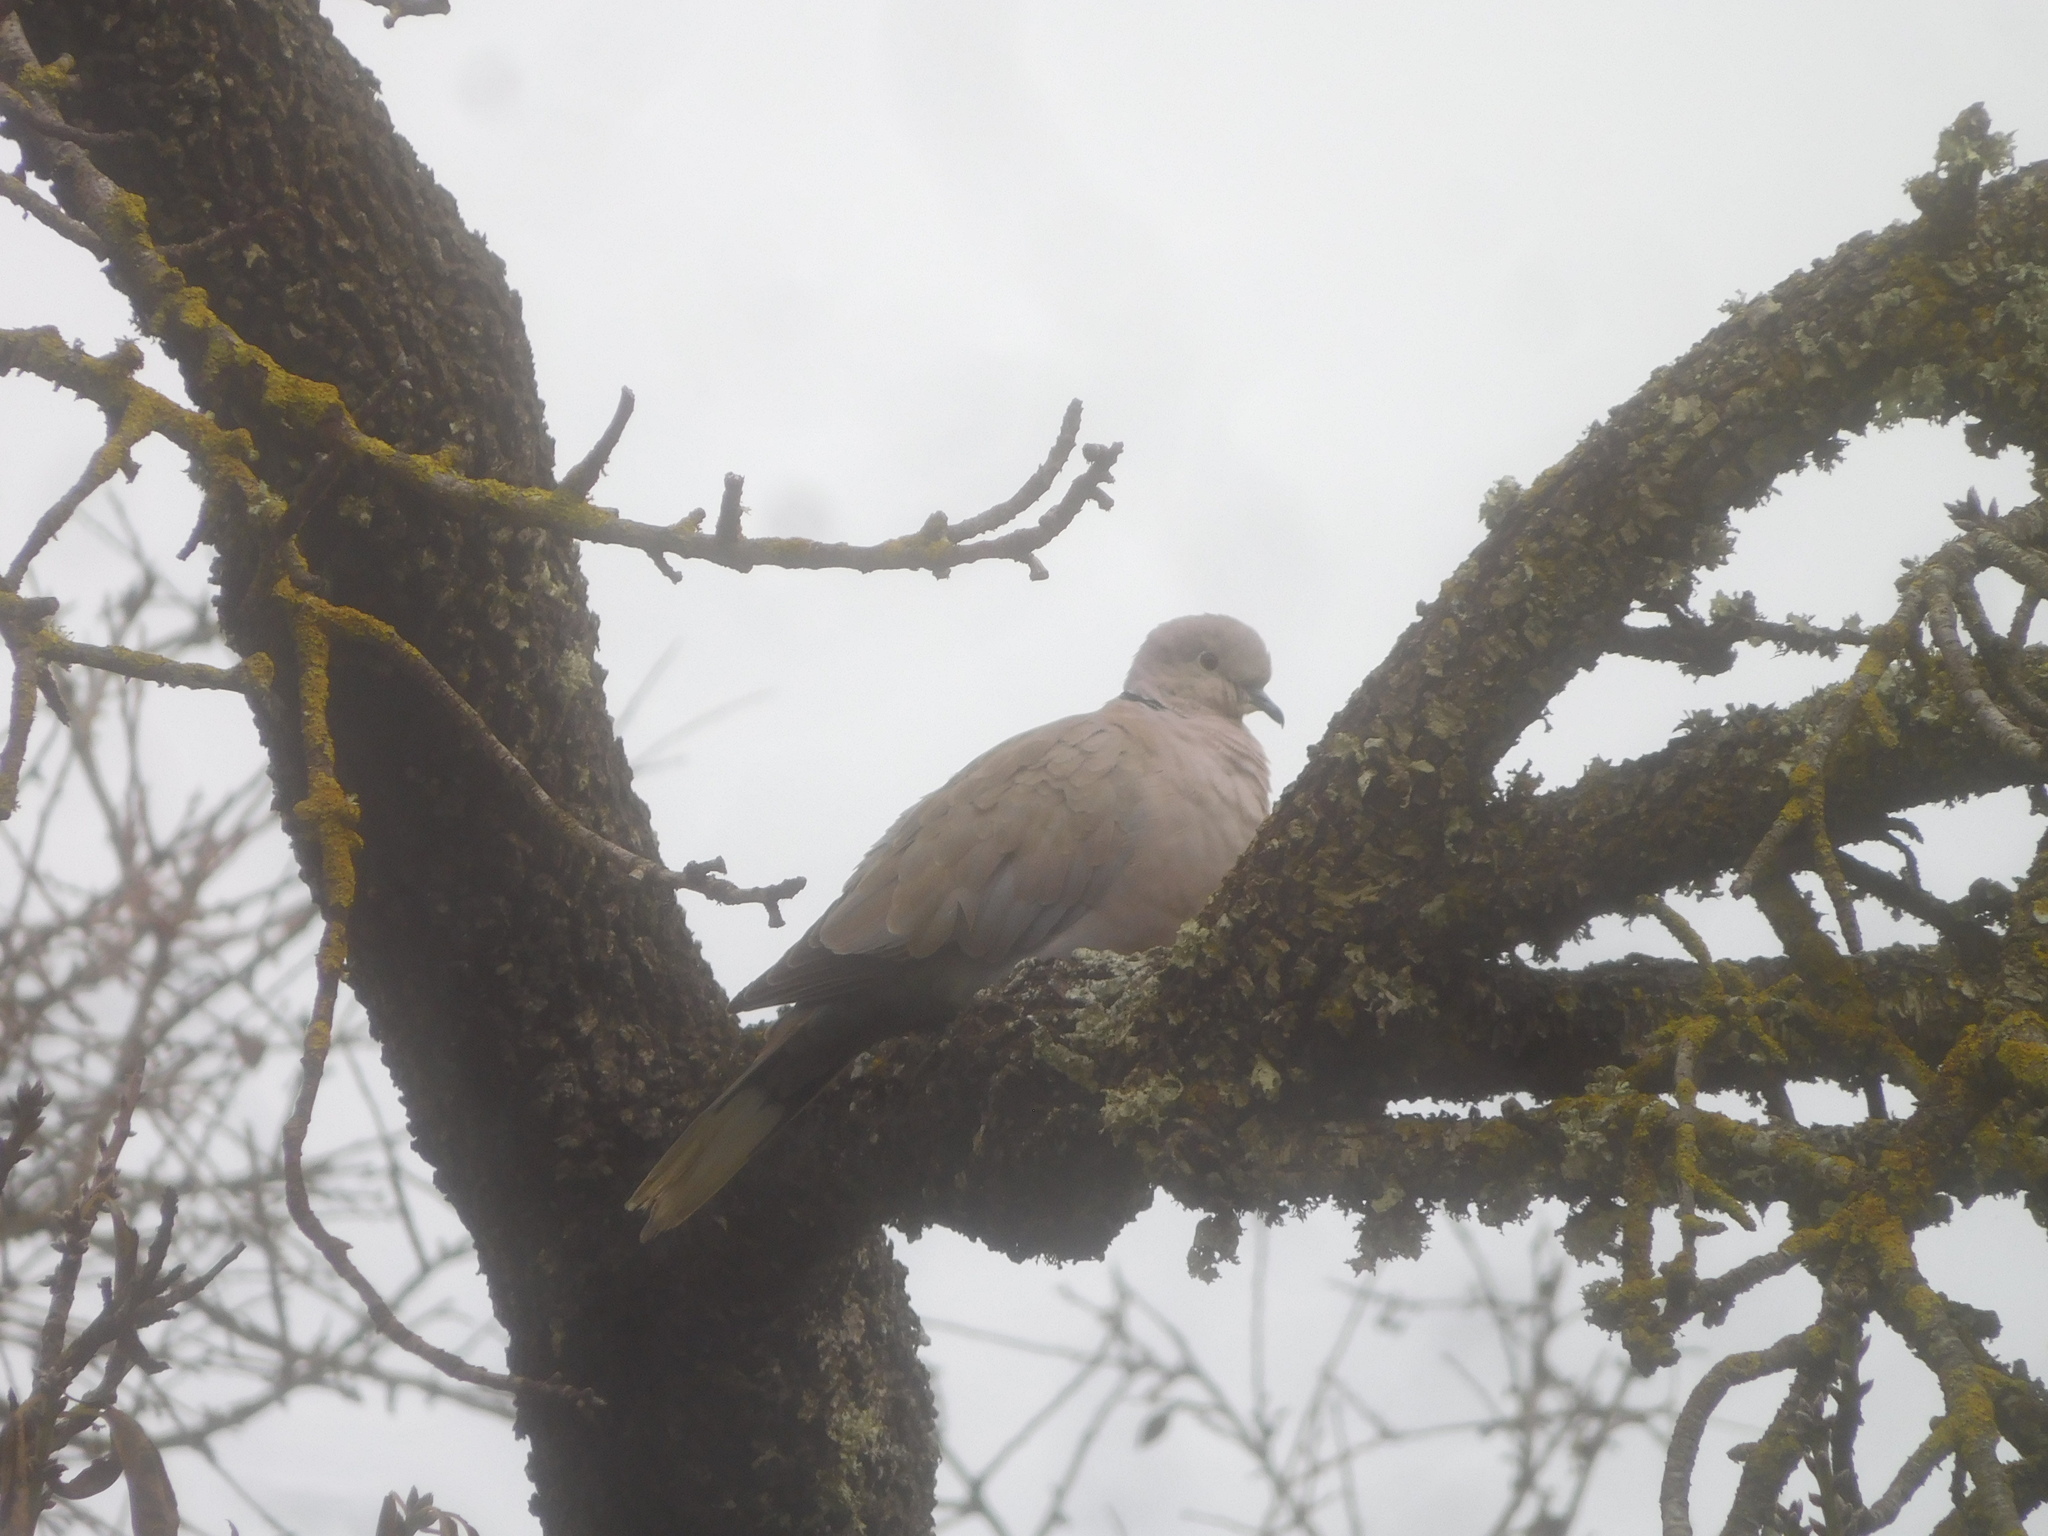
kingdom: Animalia
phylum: Chordata
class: Aves
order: Columbiformes
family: Columbidae
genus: Streptopelia
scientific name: Streptopelia decaocto
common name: Eurasian collared dove
